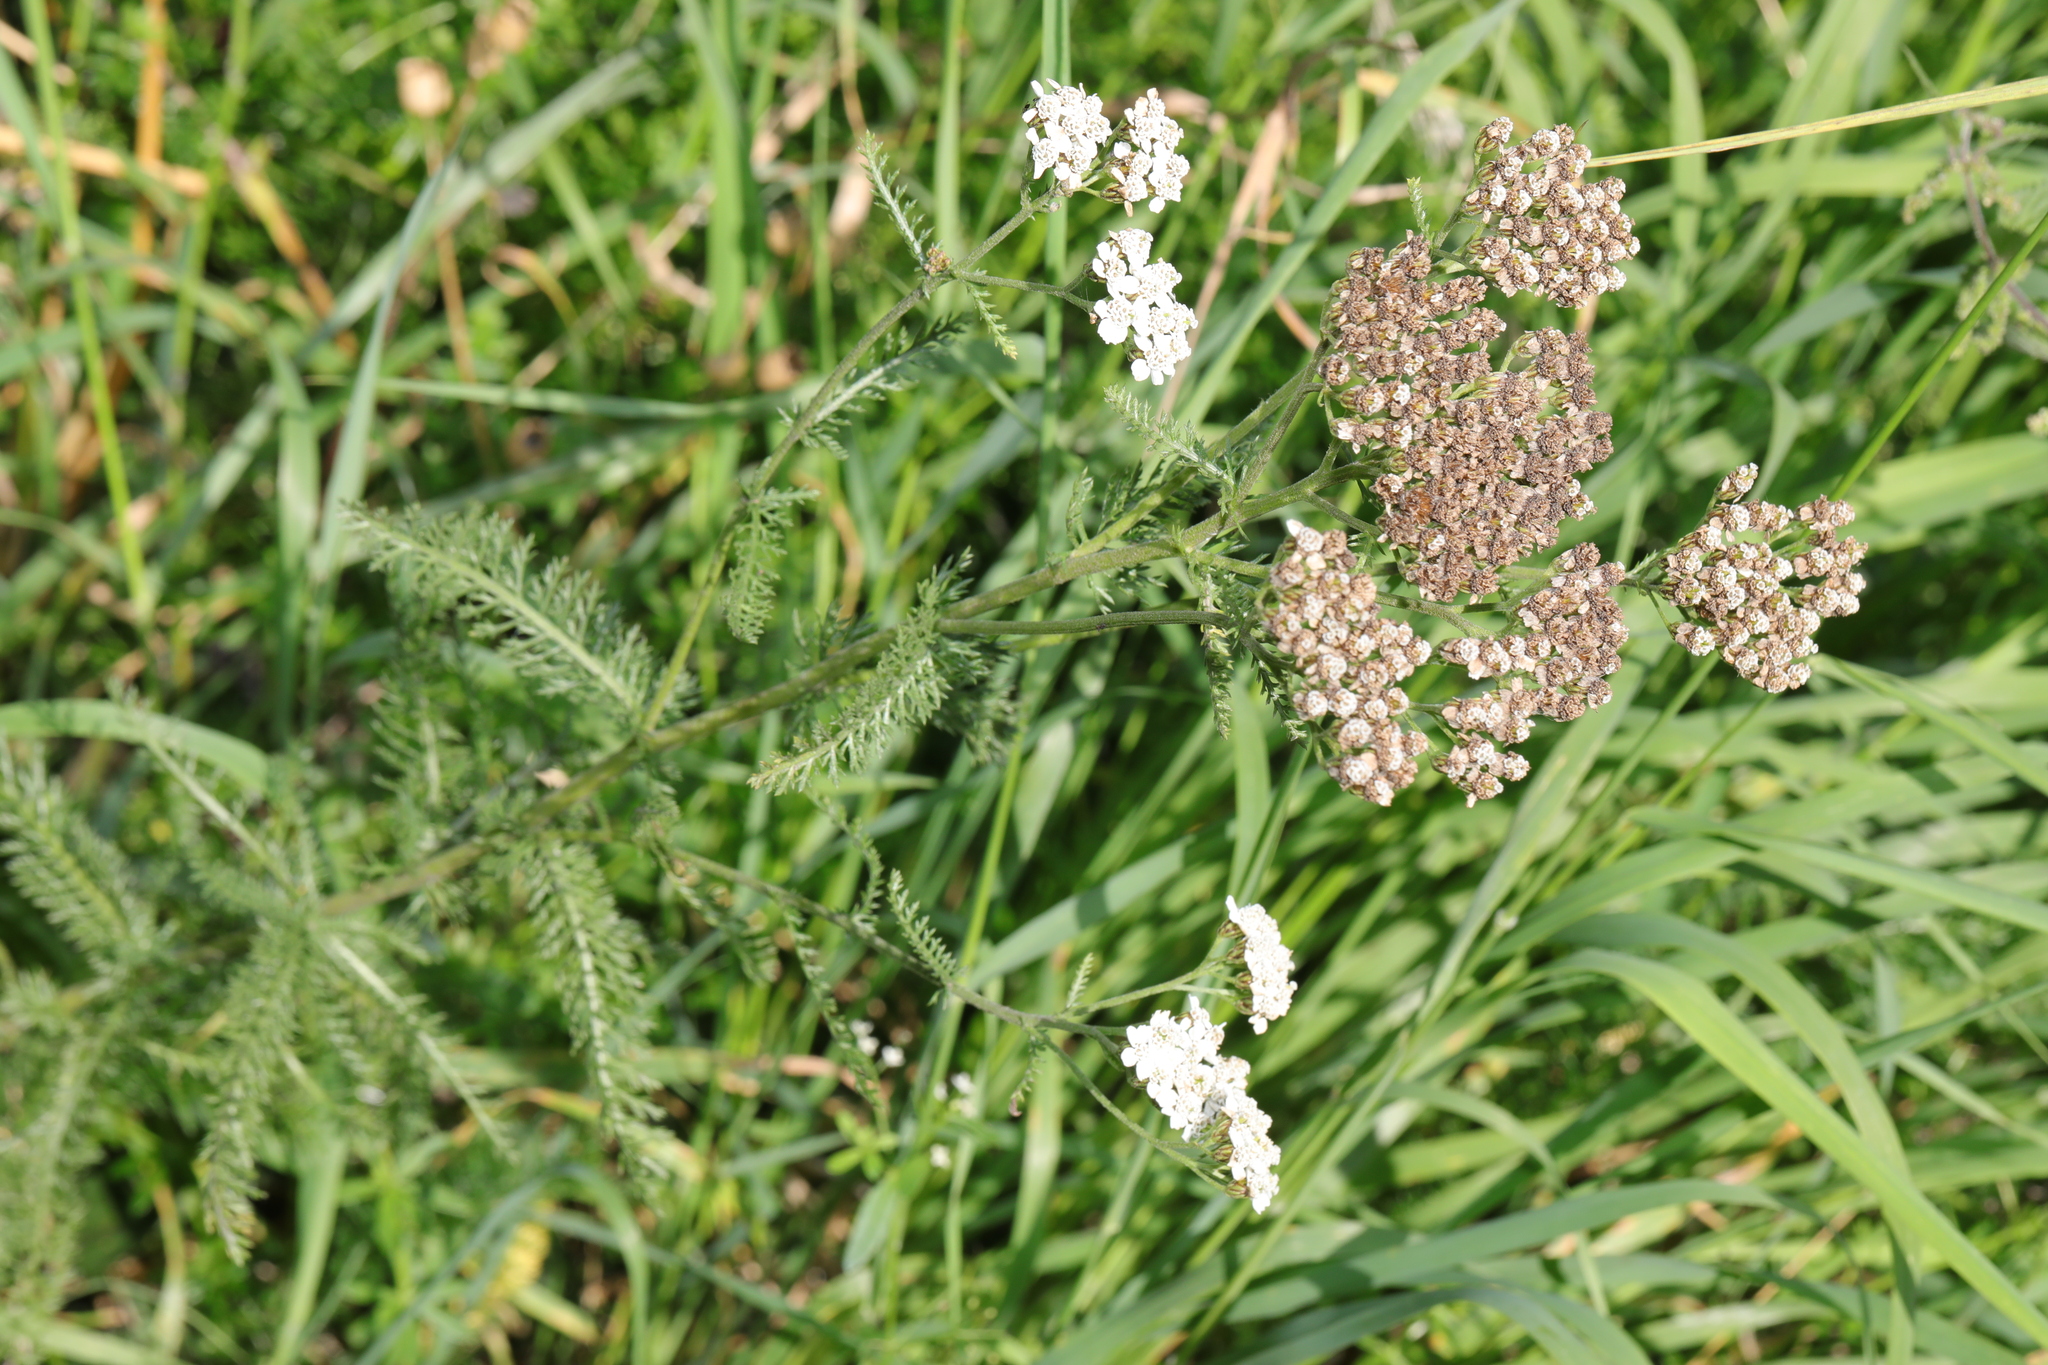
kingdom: Plantae
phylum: Tracheophyta
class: Magnoliopsida
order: Asterales
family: Asteraceae
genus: Achillea
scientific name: Achillea millefolium
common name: Yarrow
